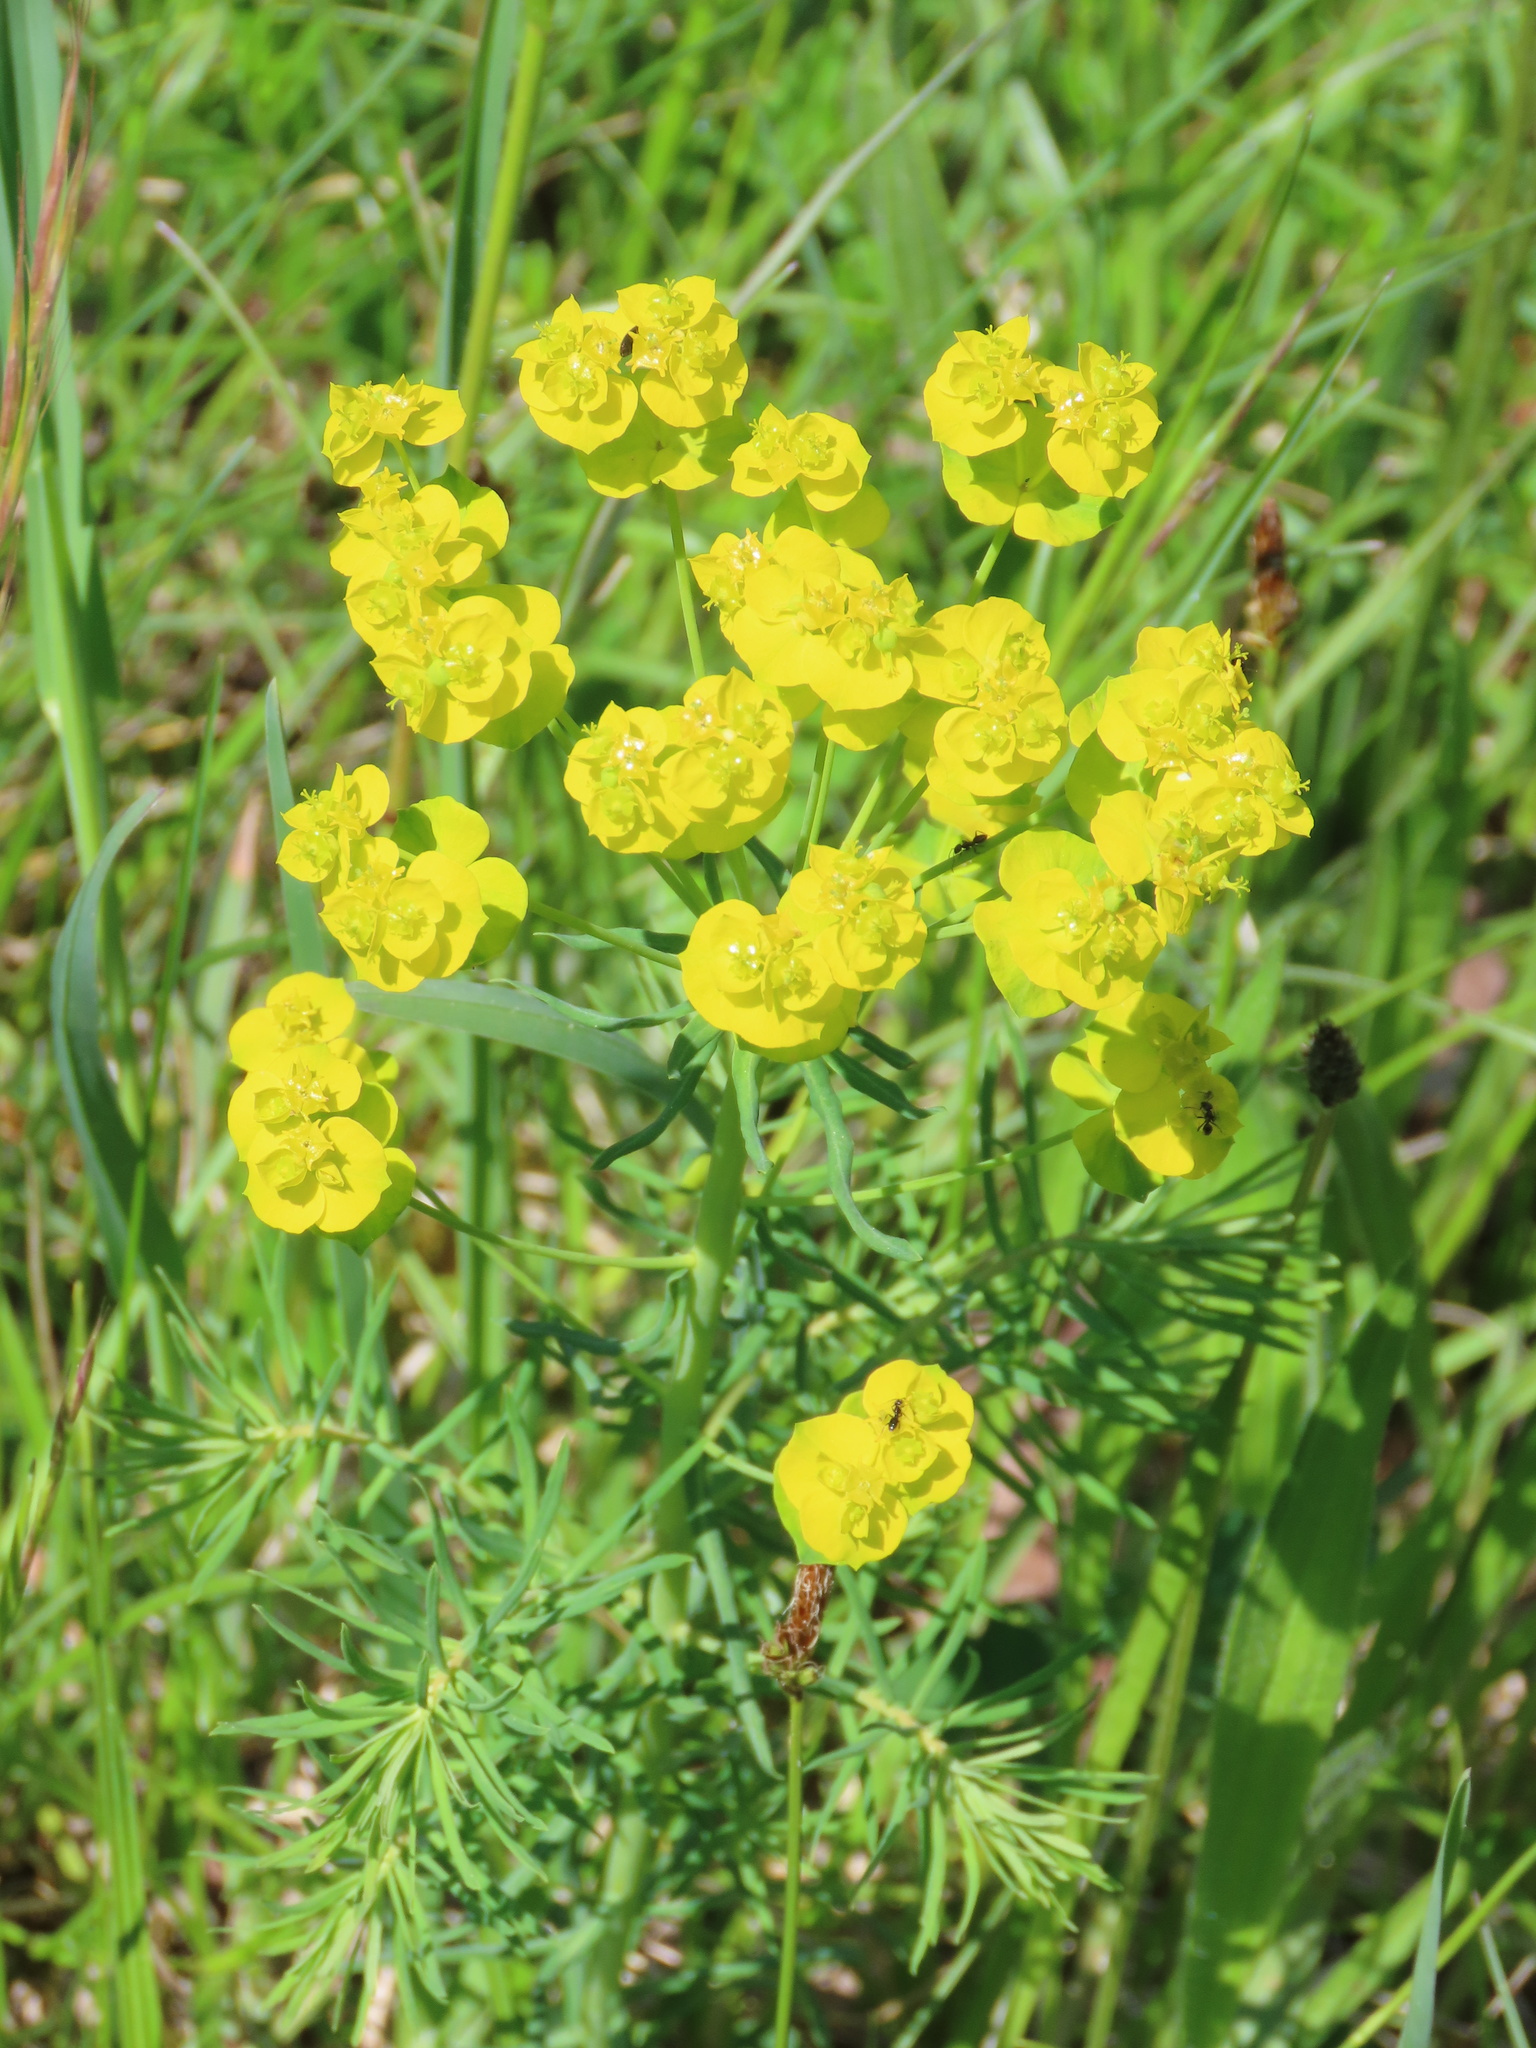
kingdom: Plantae
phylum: Tracheophyta
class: Magnoliopsida
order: Malpighiales
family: Euphorbiaceae
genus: Euphorbia
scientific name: Euphorbia cyparissias
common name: Cypress spurge
